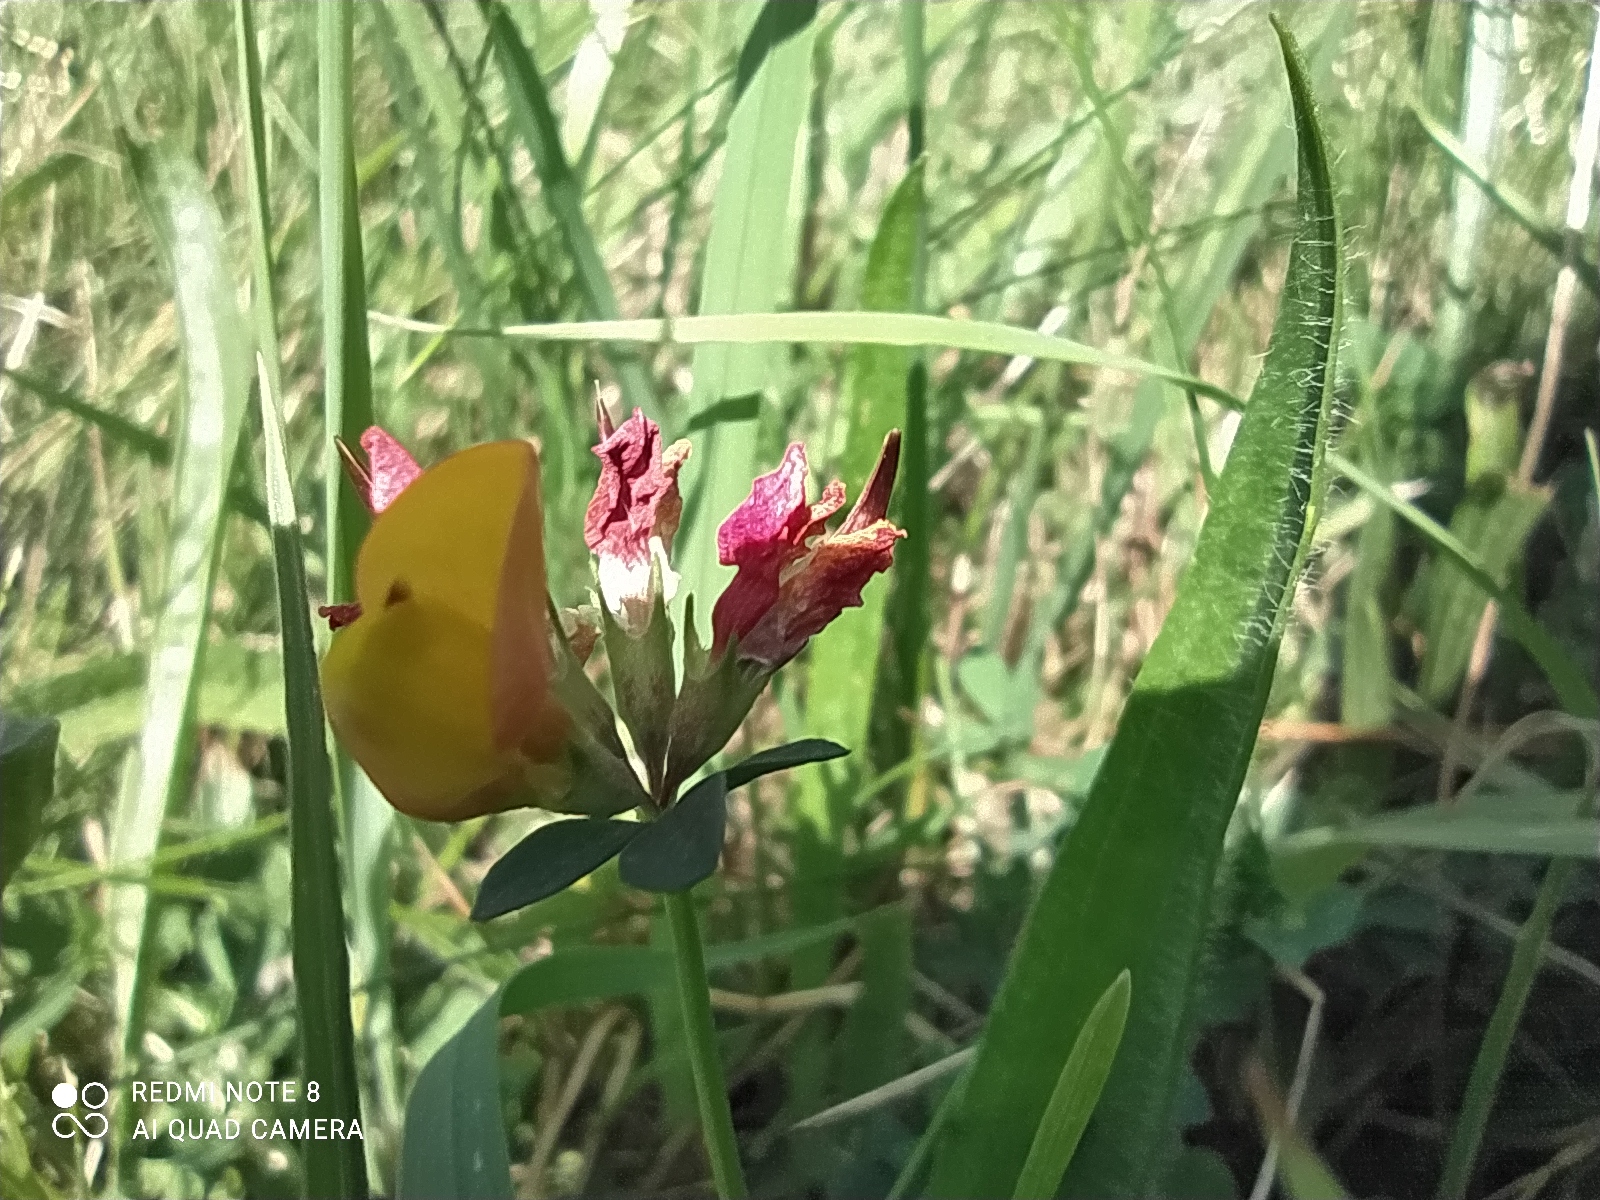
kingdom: Plantae
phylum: Tracheophyta
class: Magnoliopsida
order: Fabales
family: Fabaceae
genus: Lotus
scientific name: Lotus corniculatus
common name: Common bird's-foot-trefoil
